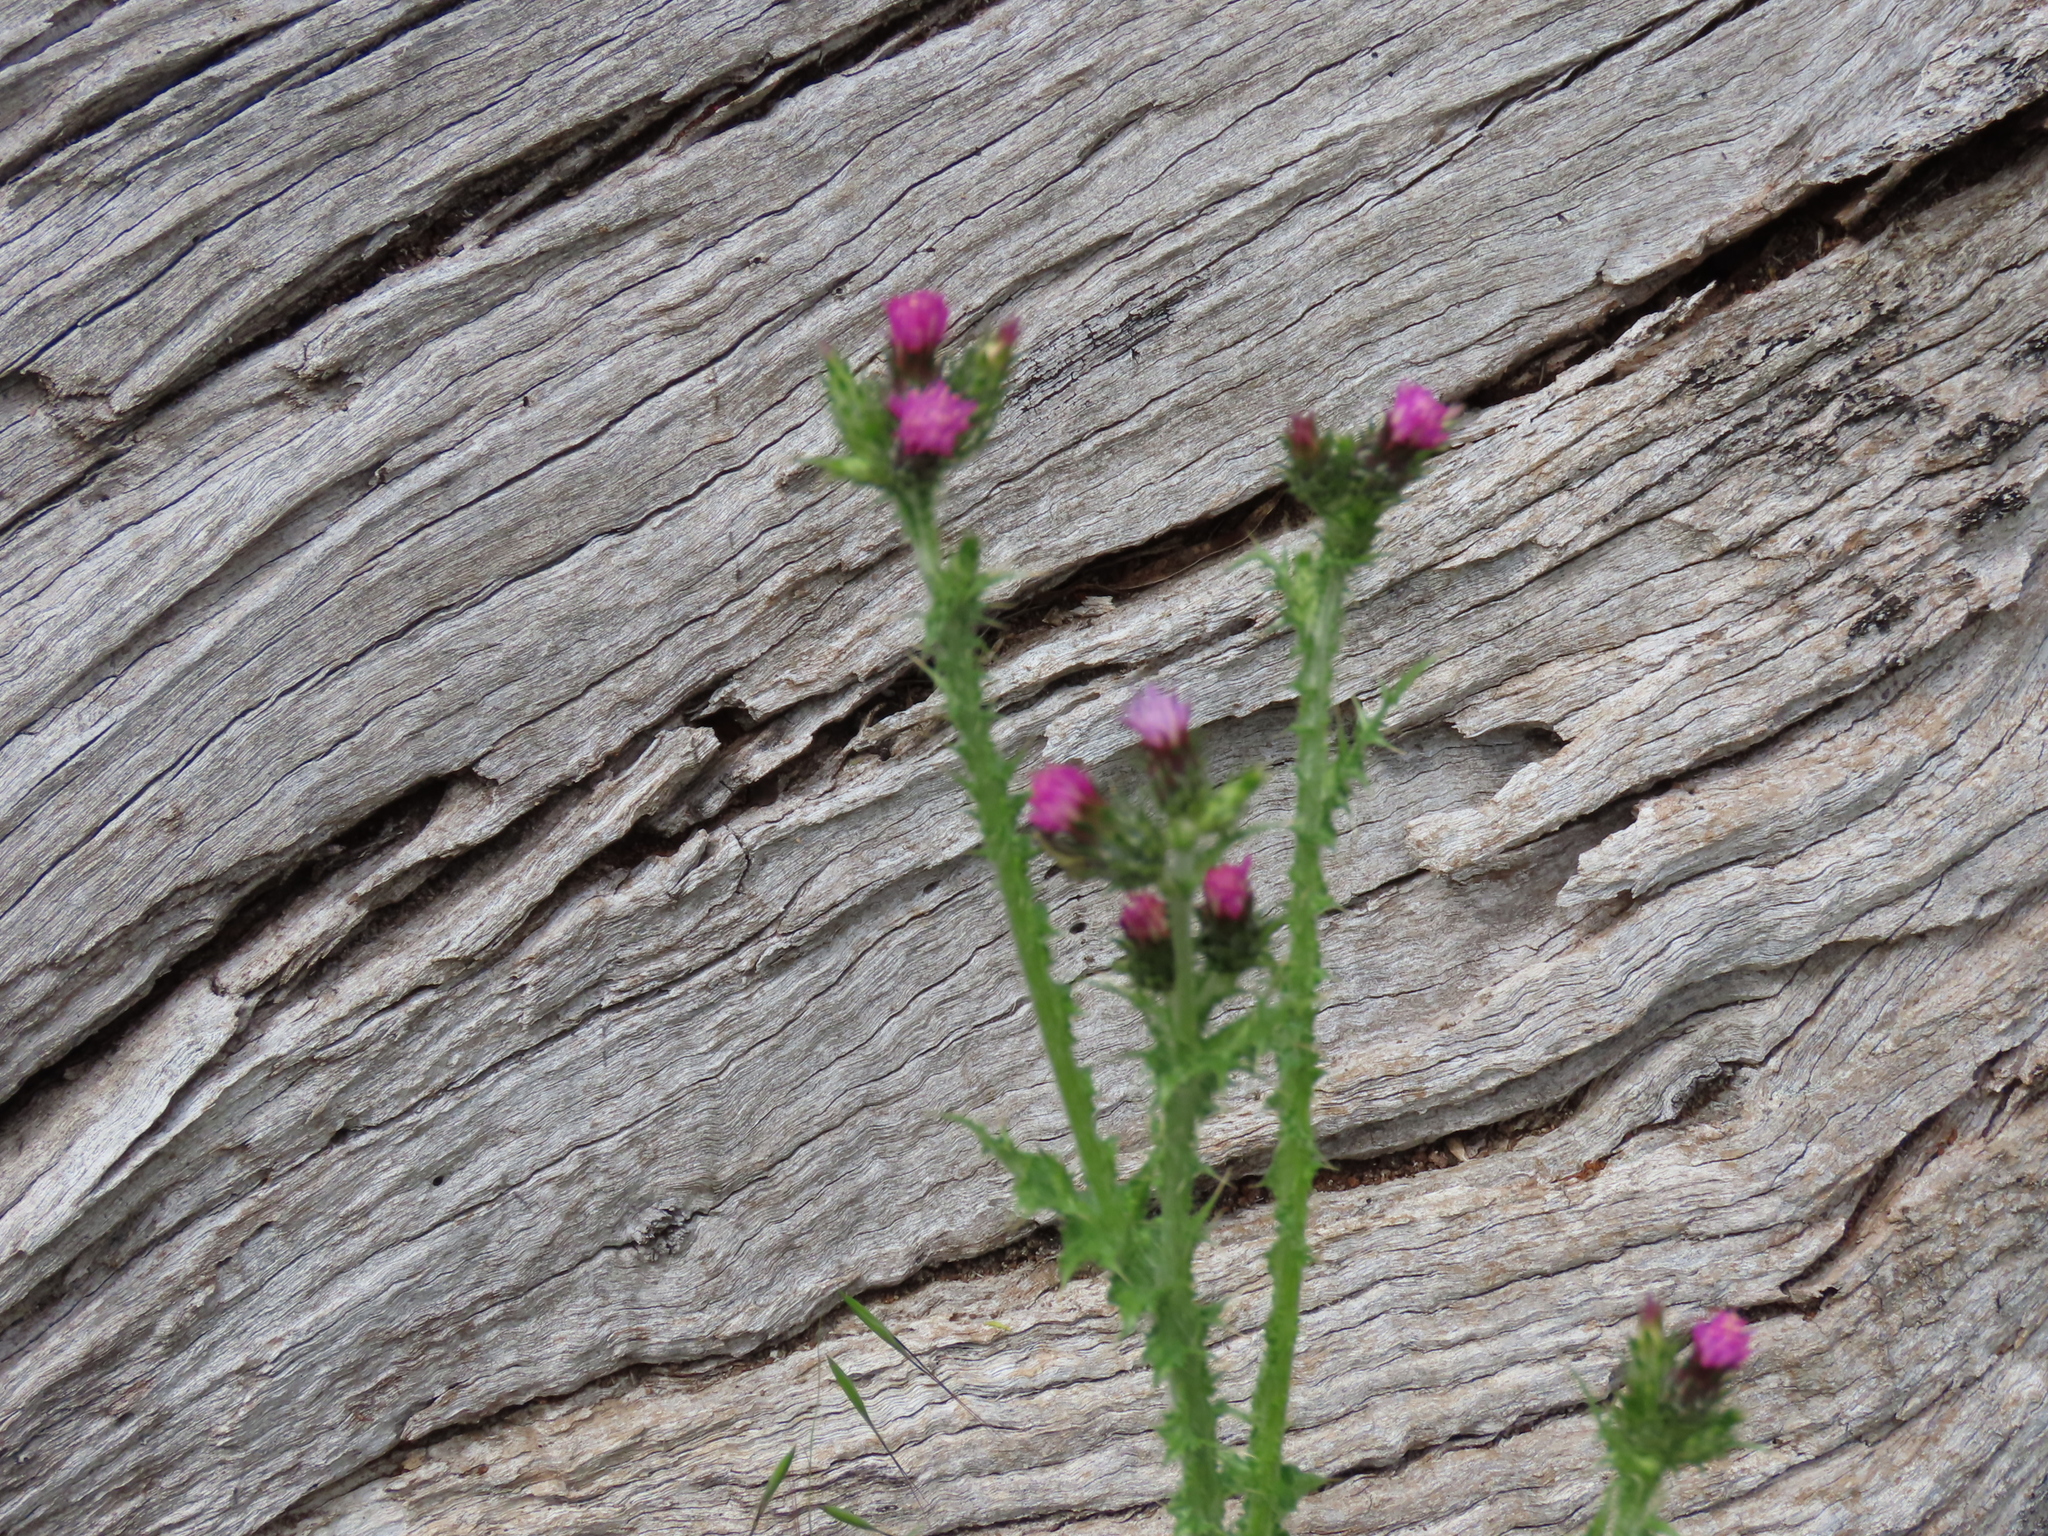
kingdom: Plantae
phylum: Tracheophyta
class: Magnoliopsida
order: Asterales
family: Asteraceae
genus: Carduus
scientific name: Carduus tenuiflorus
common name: Slender thistle
